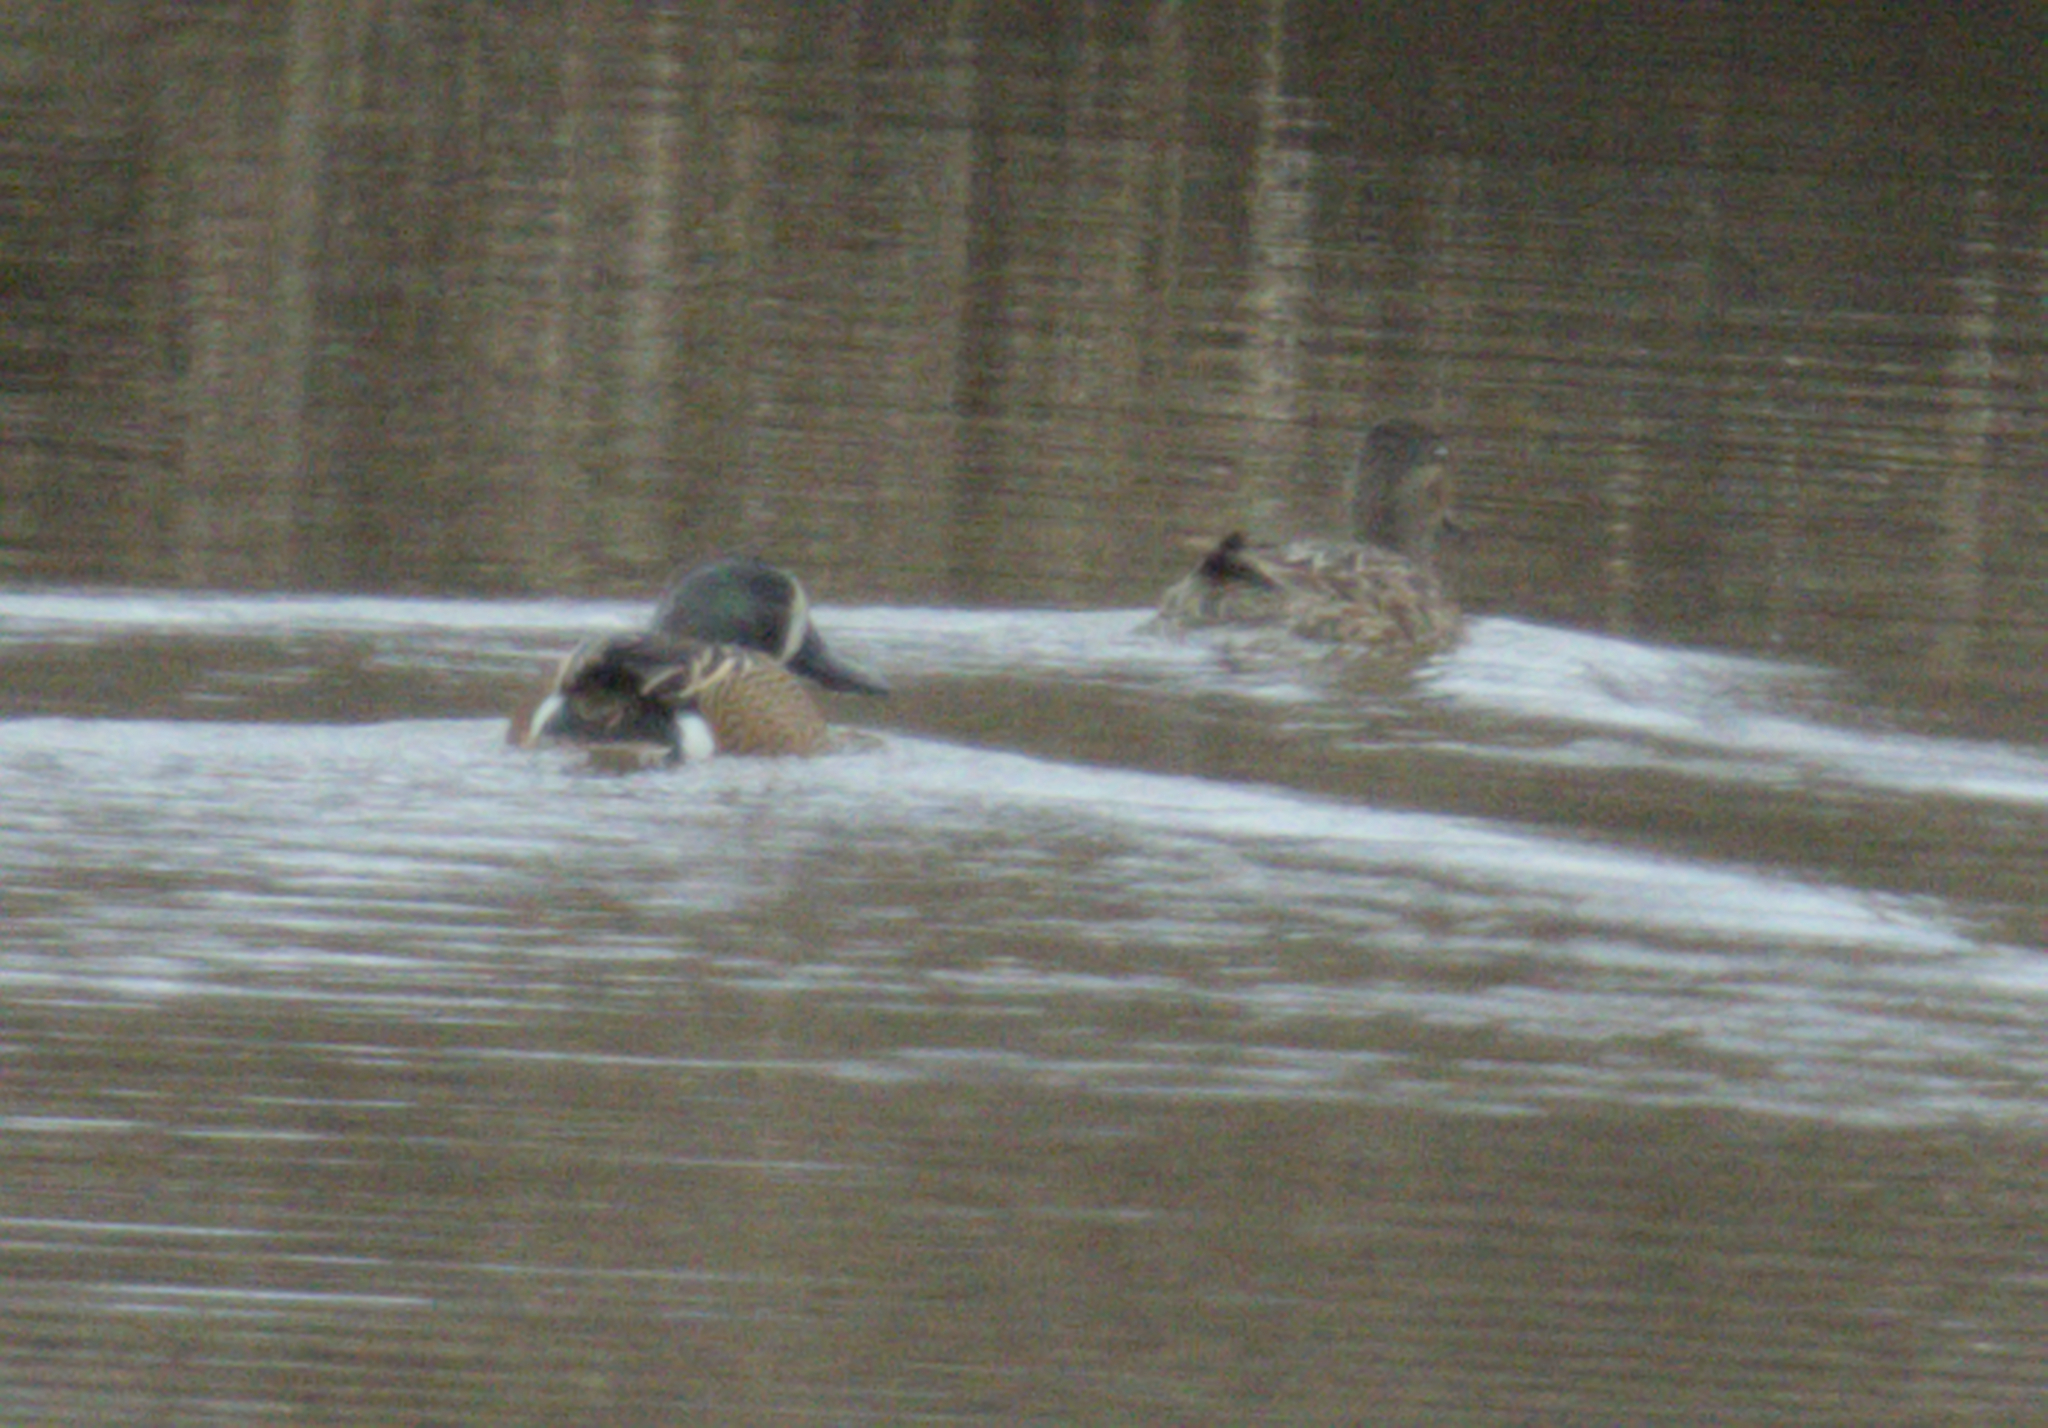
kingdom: Animalia
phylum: Chordata
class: Aves
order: Anseriformes
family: Anatidae
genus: Spatula
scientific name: Spatula discors
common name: Blue-winged teal
